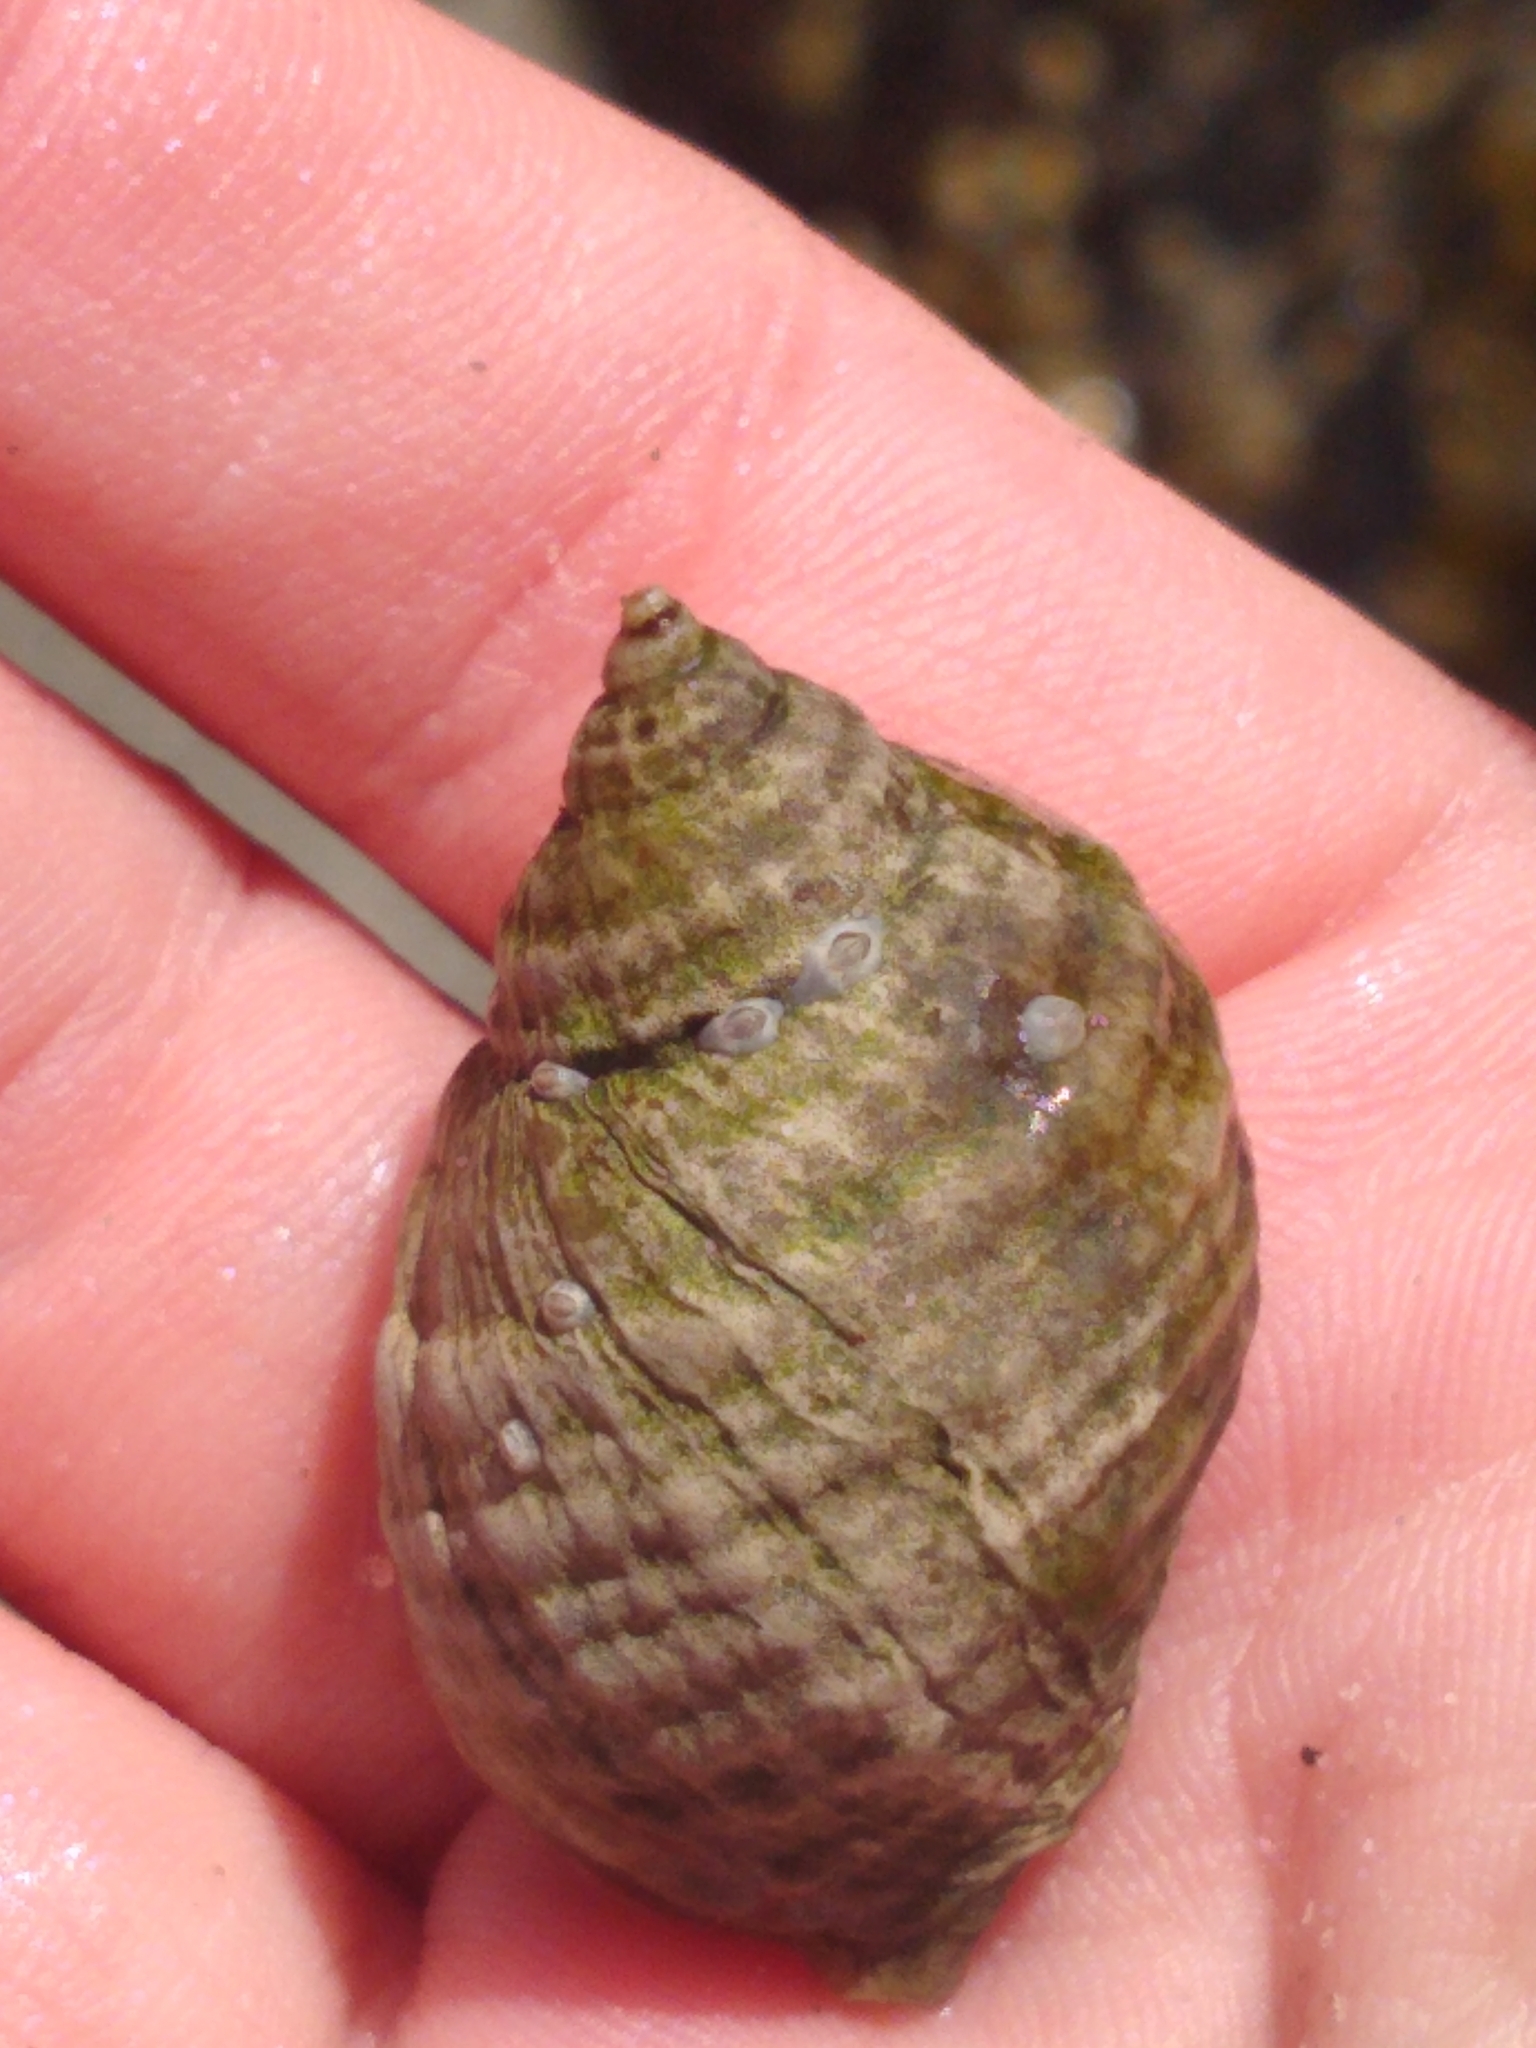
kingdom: Animalia
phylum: Mollusca
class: Gastropoda
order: Neogastropoda
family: Muricidae
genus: Nucella
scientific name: Nucella lapillus
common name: Dog whelk
